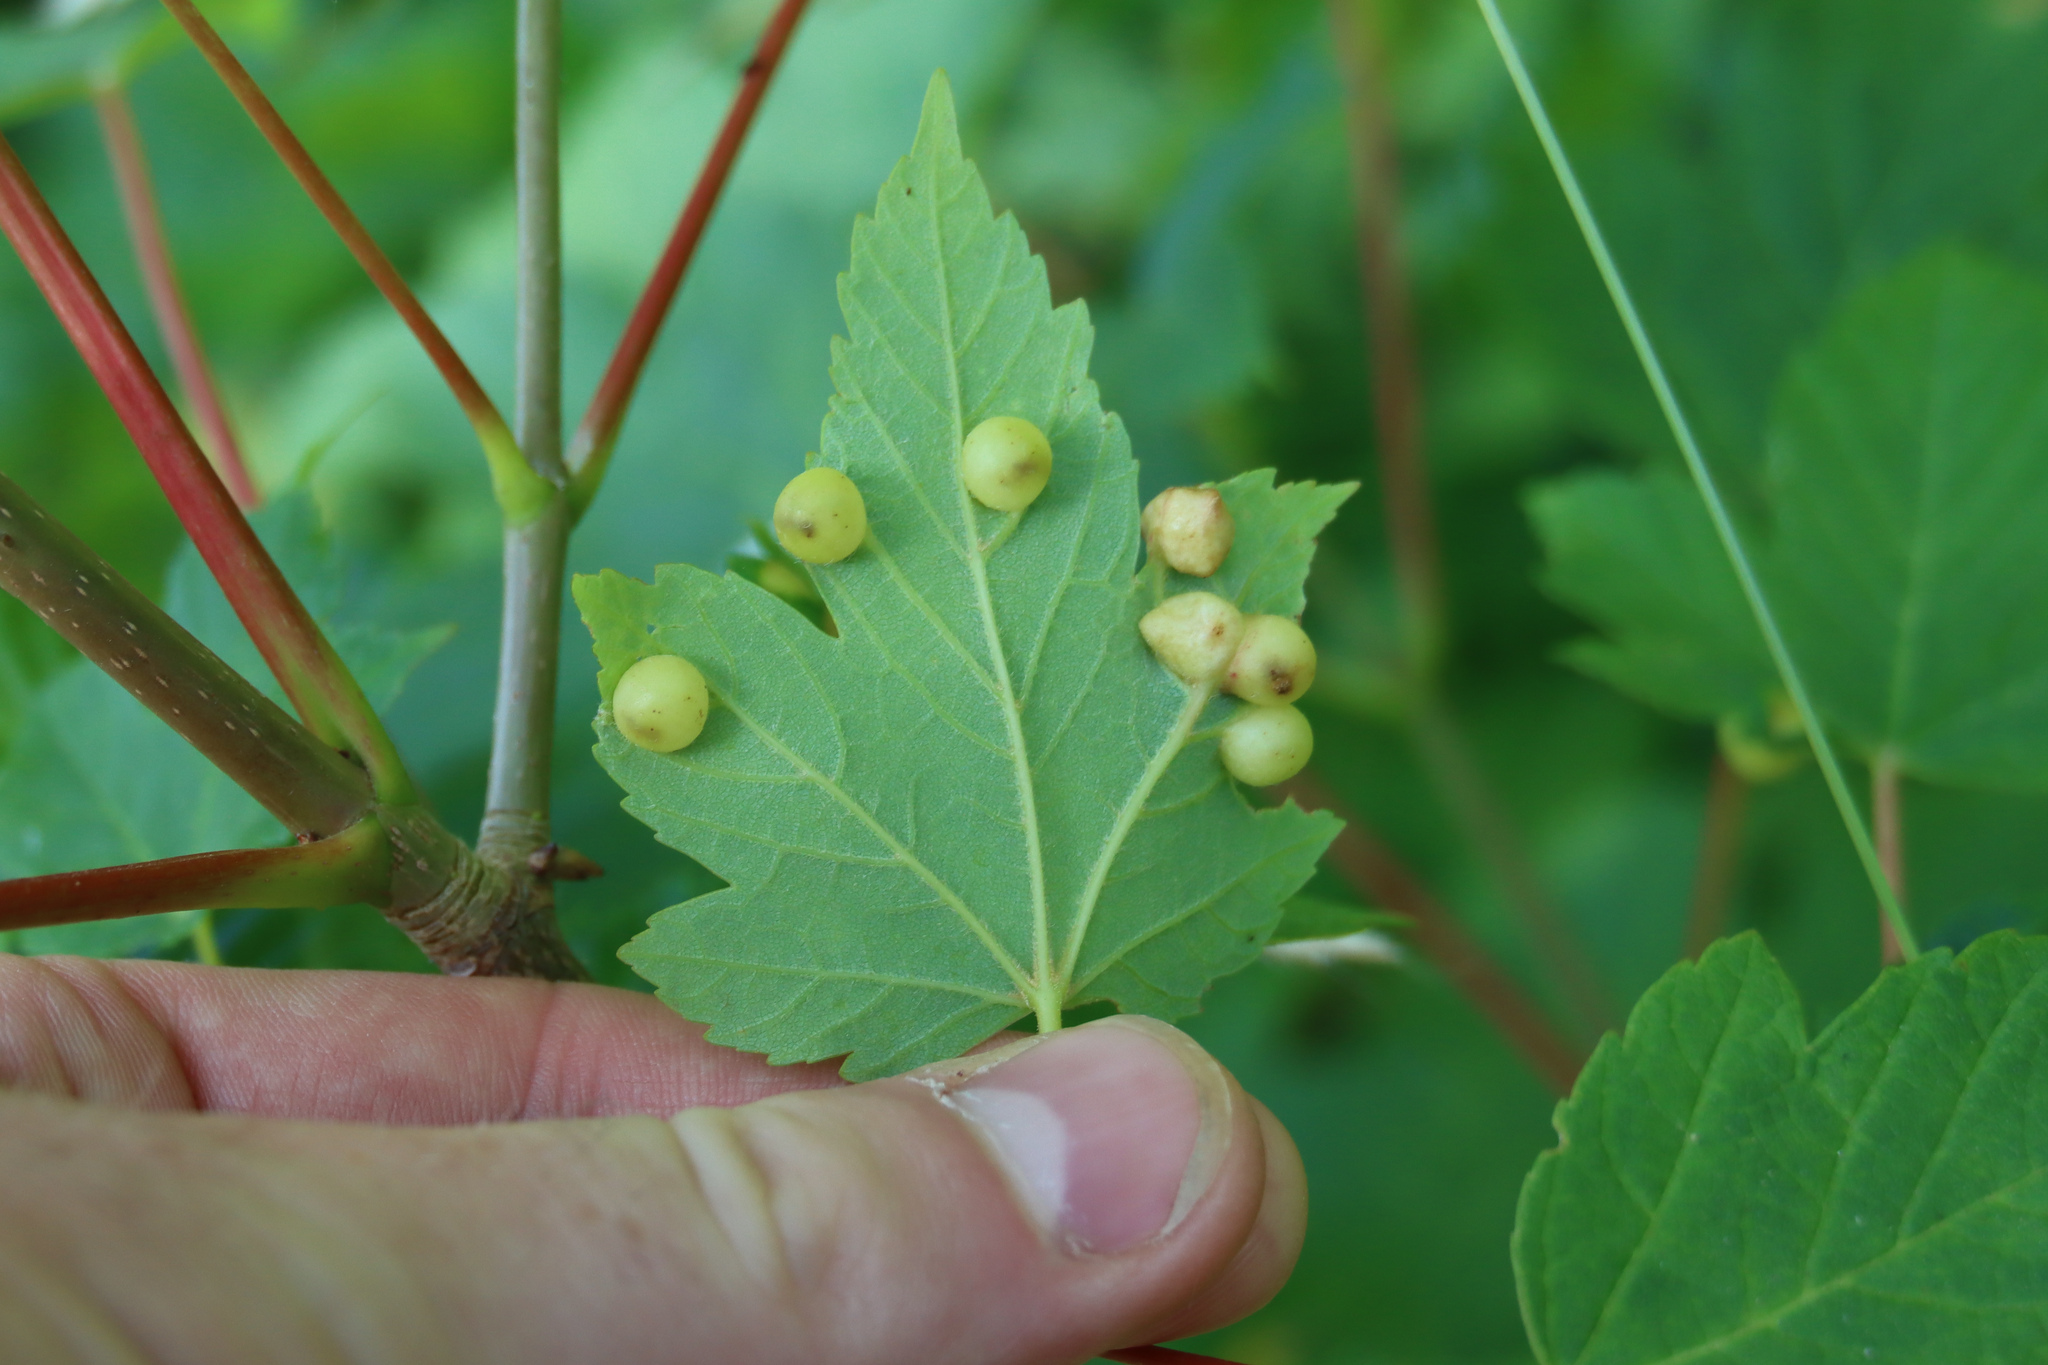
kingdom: Animalia
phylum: Arthropoda
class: Insecta
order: Hymenoptera
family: Cynipidae
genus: Pediaspis
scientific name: Pediaspis aceris
